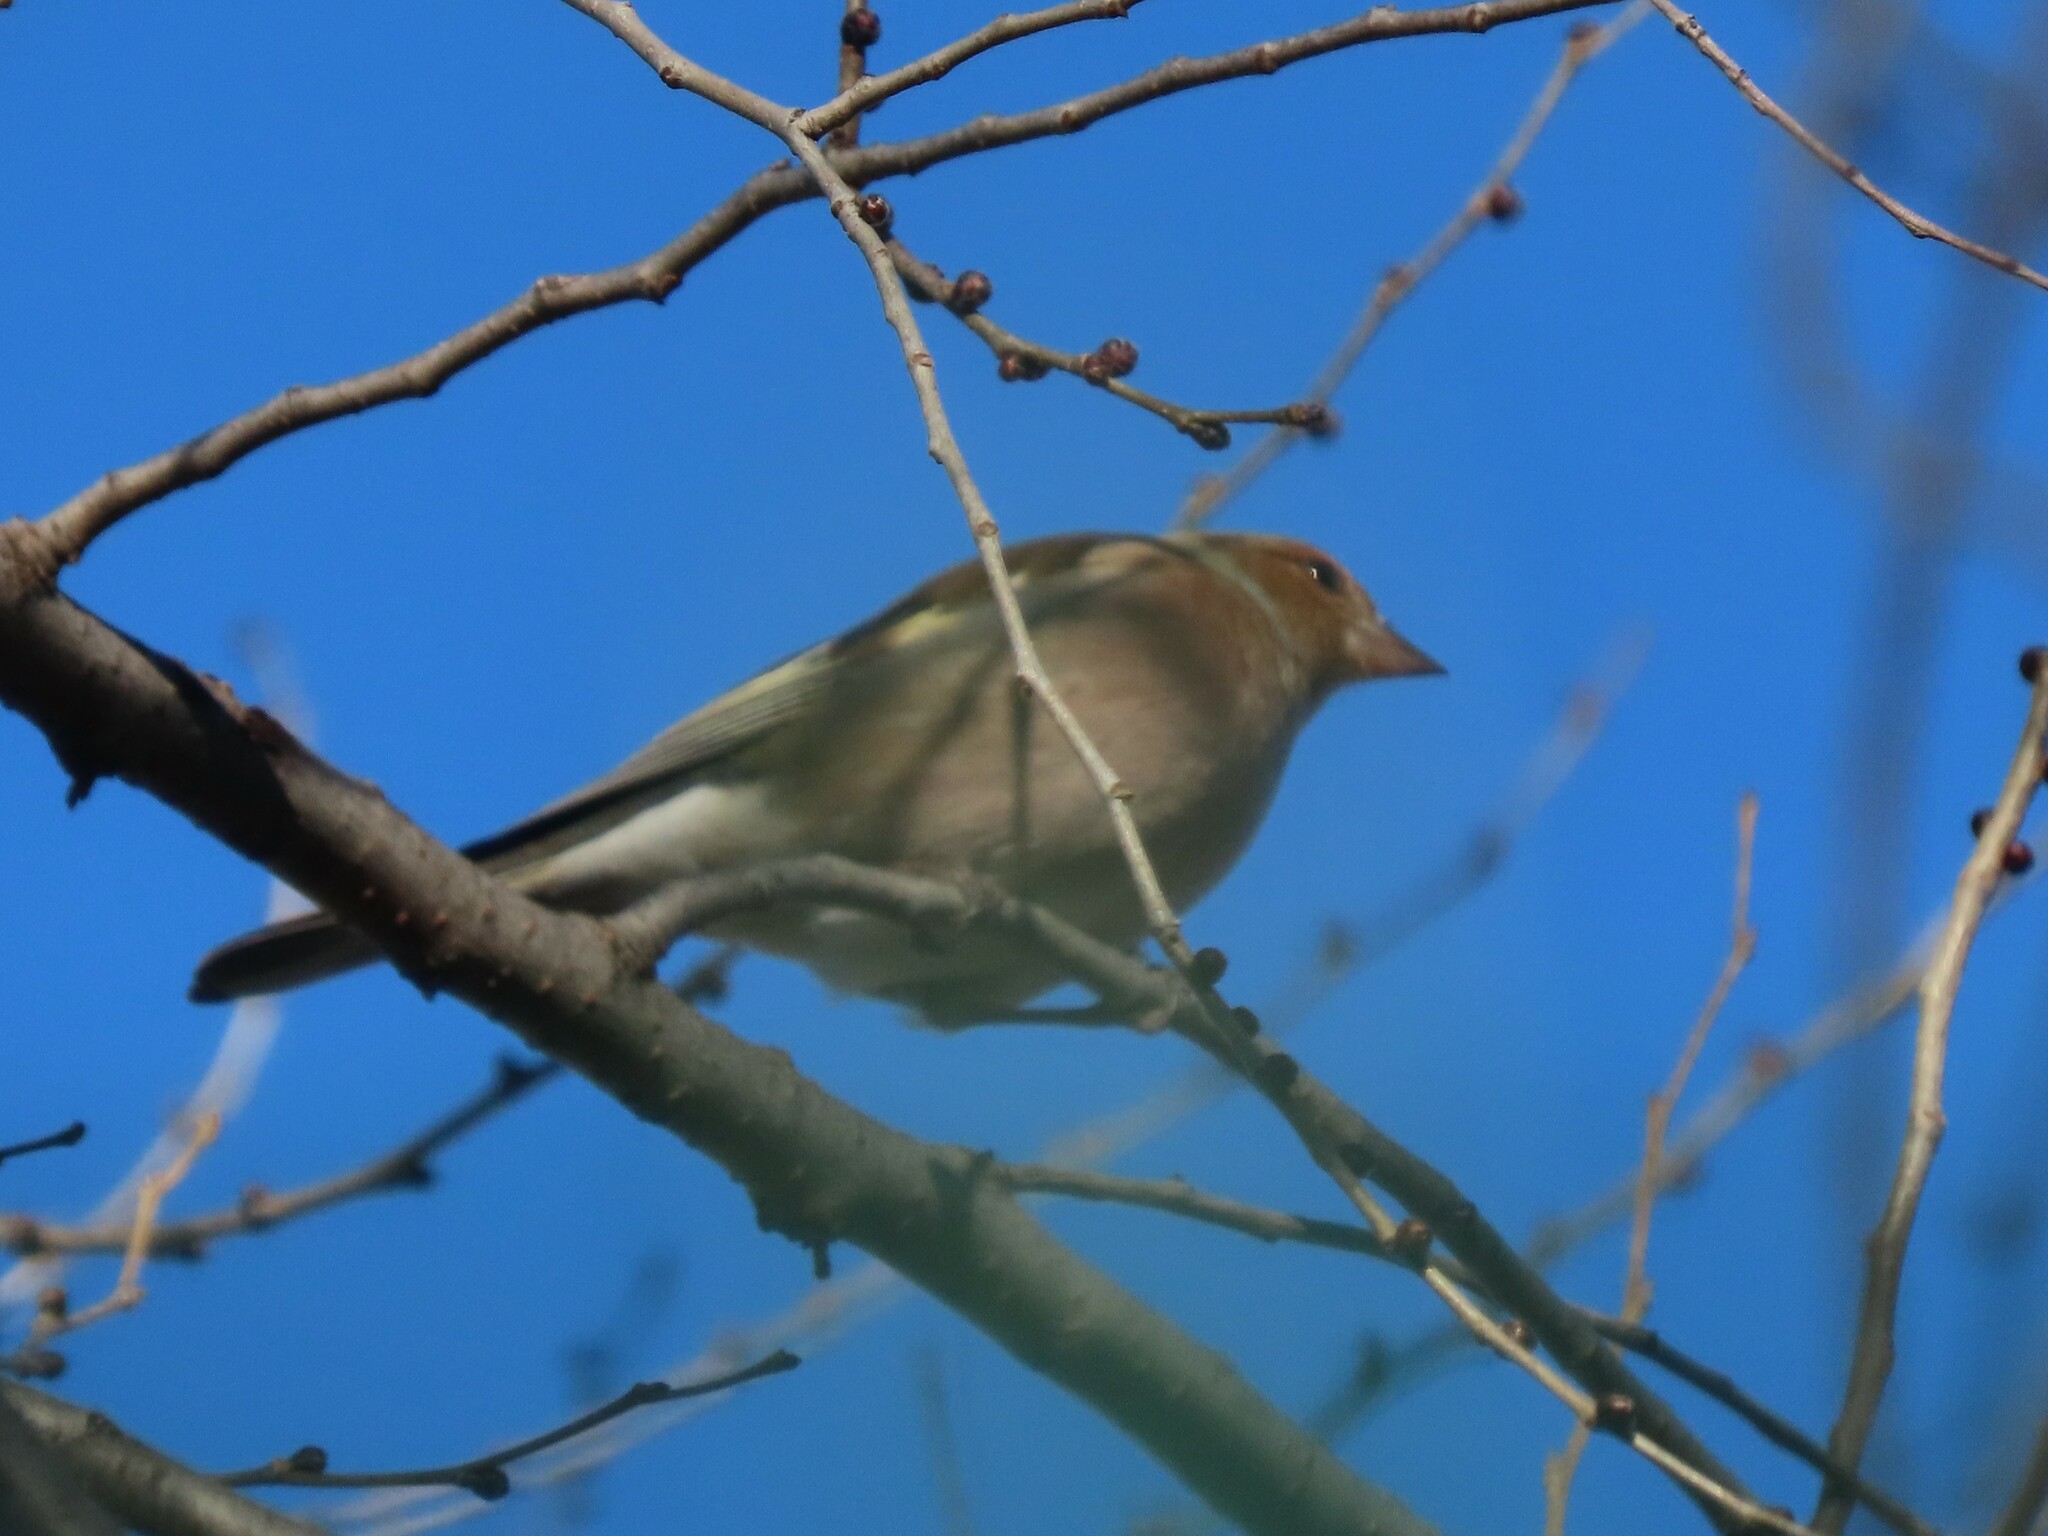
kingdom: Animalia
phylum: Chordata
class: Aves
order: Passeriformes
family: Fringillidae
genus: Fringilla
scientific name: Fringilla coelebs
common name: Common chaffinch
